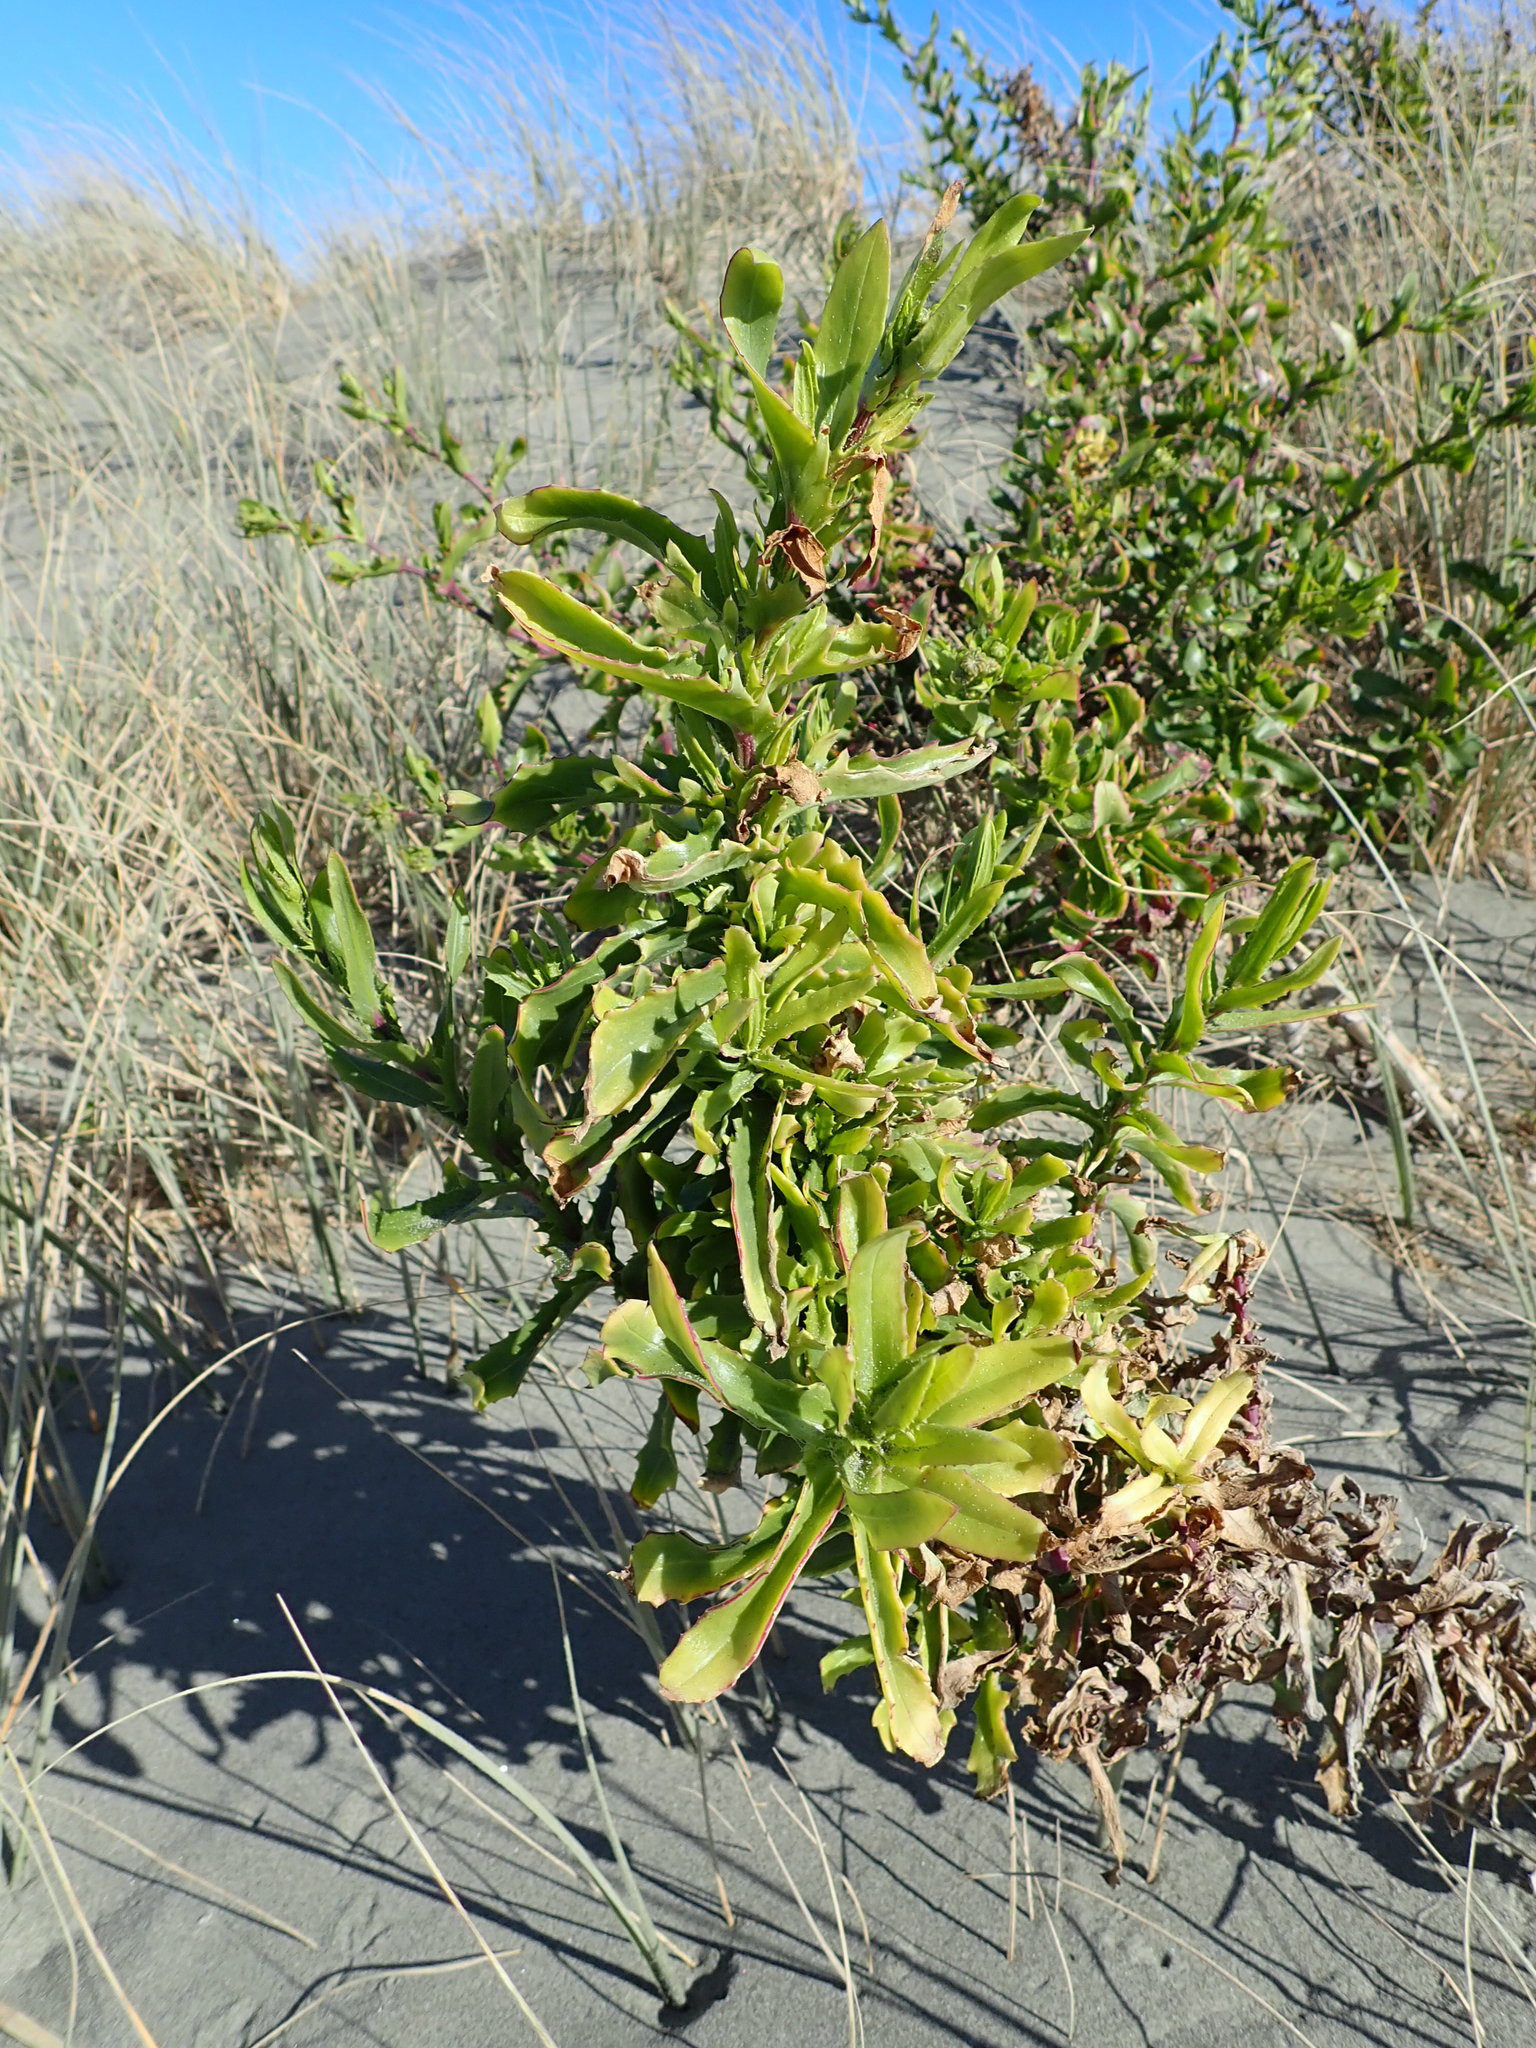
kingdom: Plantae
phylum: Tracheophyta
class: Magnoliopsida
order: Asterales
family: Asteraceae
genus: Senecio
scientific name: Senecio glastifolius
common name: Woad-leaved ragwort
